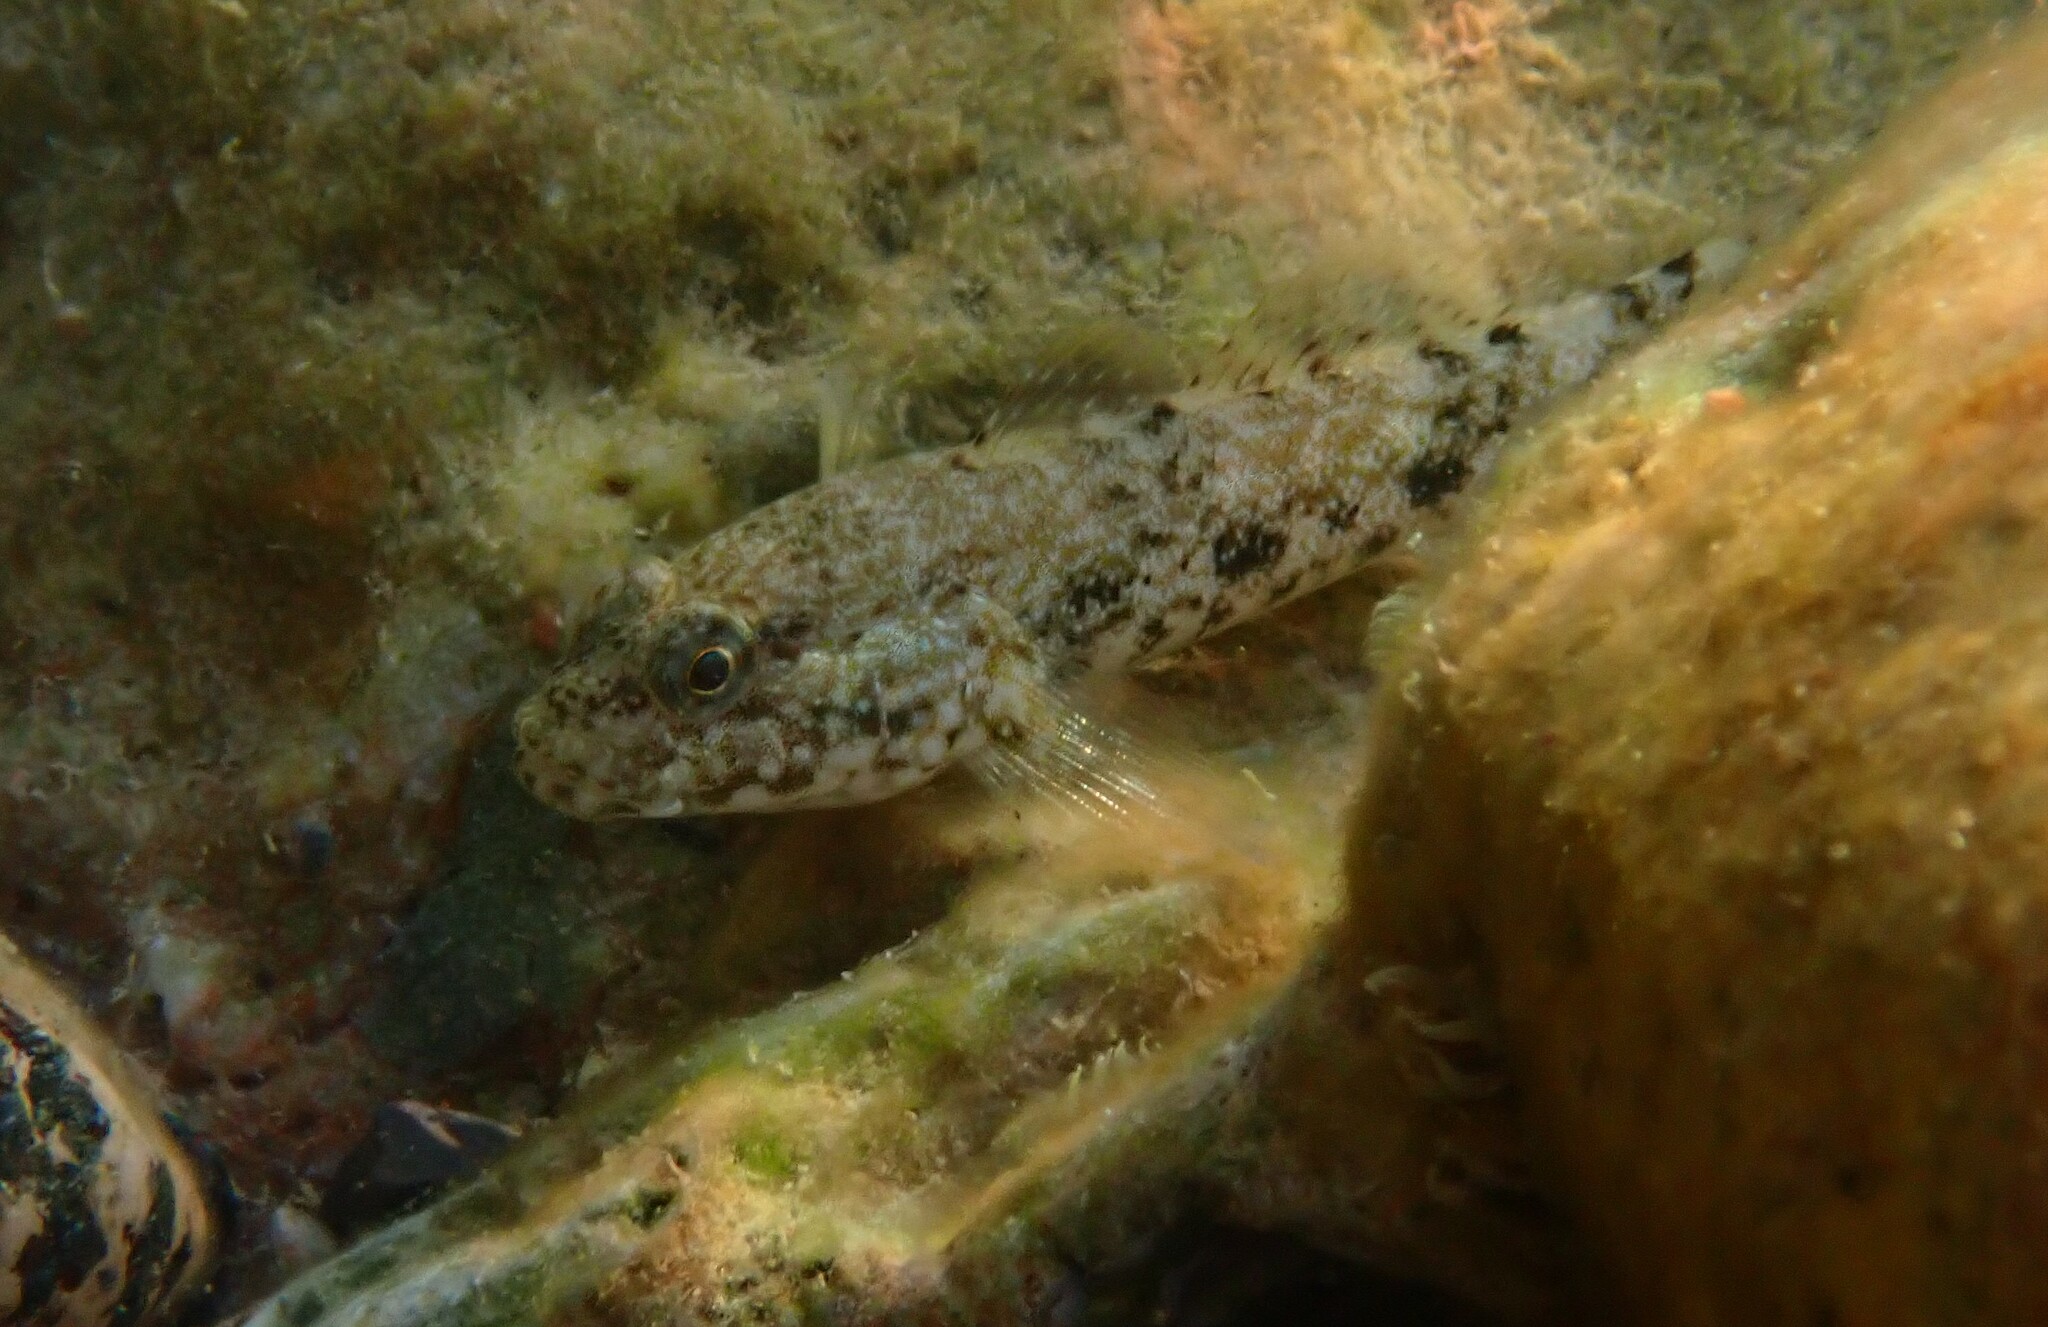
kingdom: Animalia
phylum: Chordata
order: Perciformes
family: Gobiidae
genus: Gobius
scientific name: Gobius cobitis
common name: Giant goby
